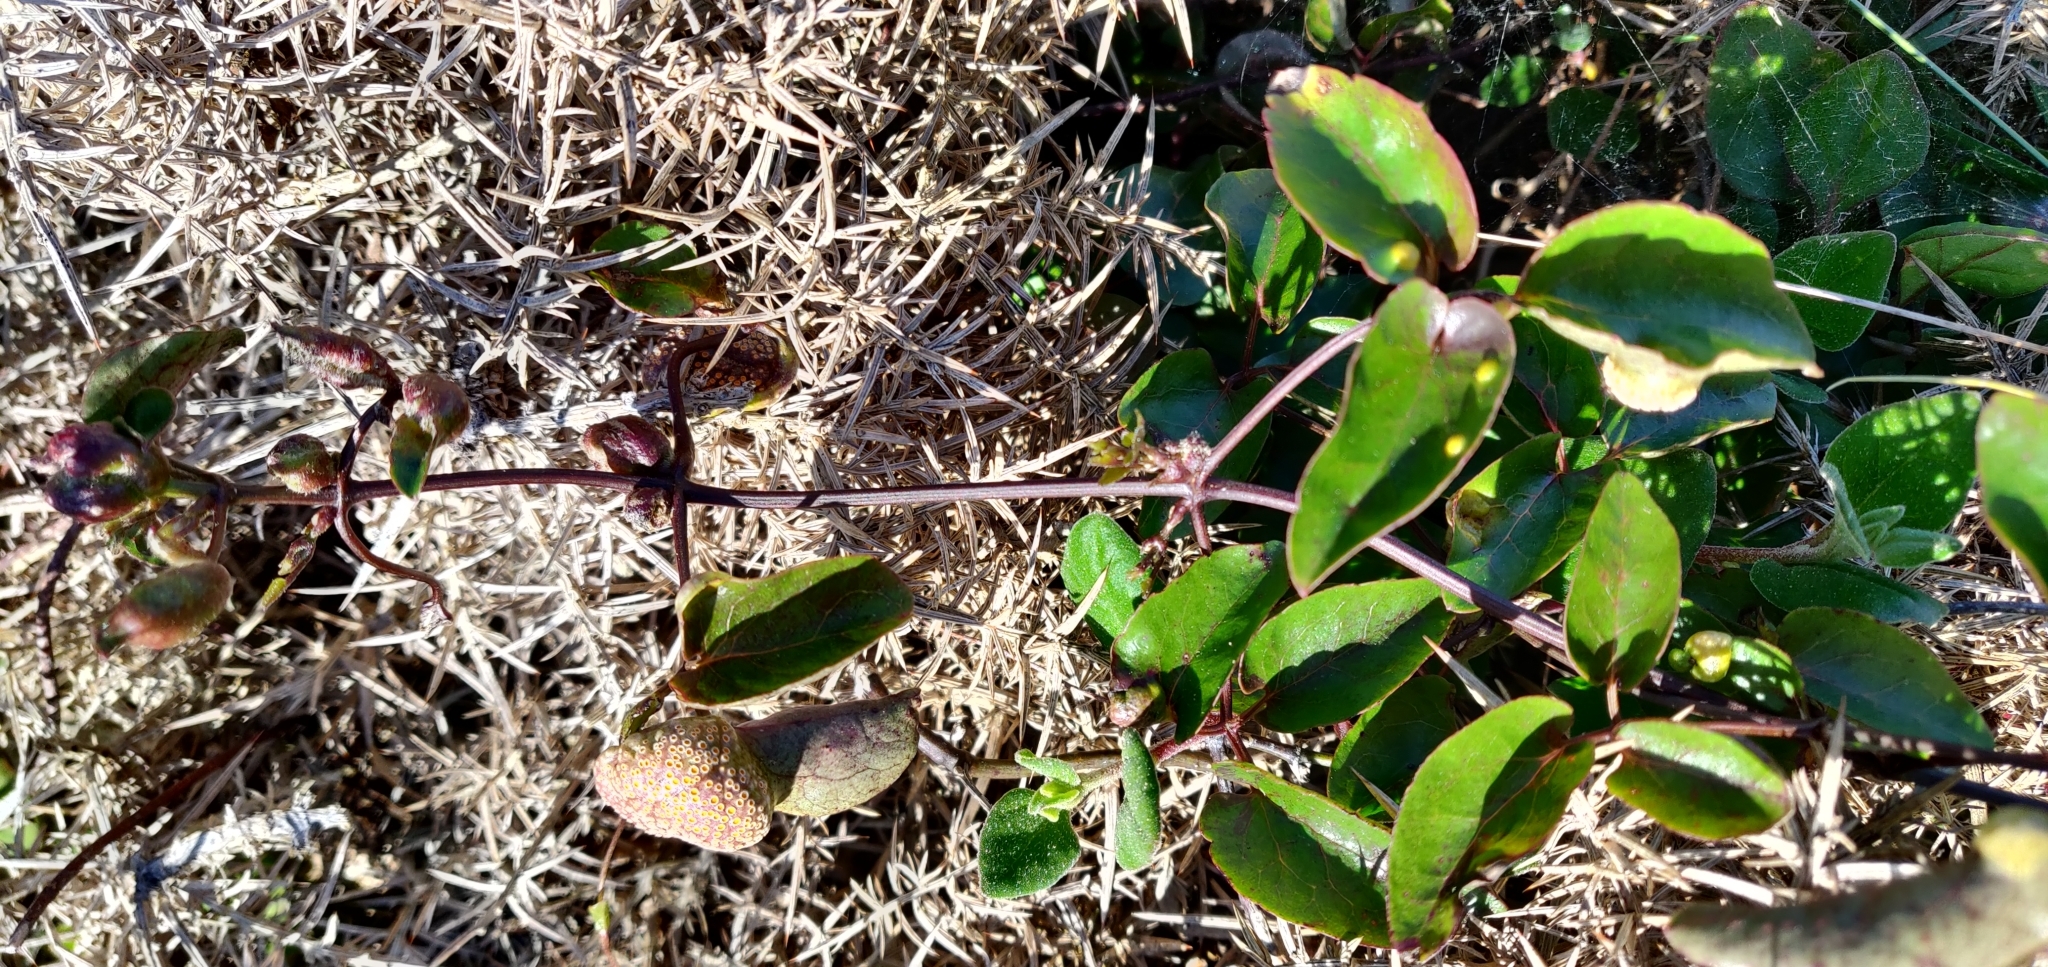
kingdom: Plantae
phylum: Tracheophyta
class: Magnoliopsida
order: Ranunculales
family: Ranunculaceae
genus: Clematis
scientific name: Clematis paniculata
